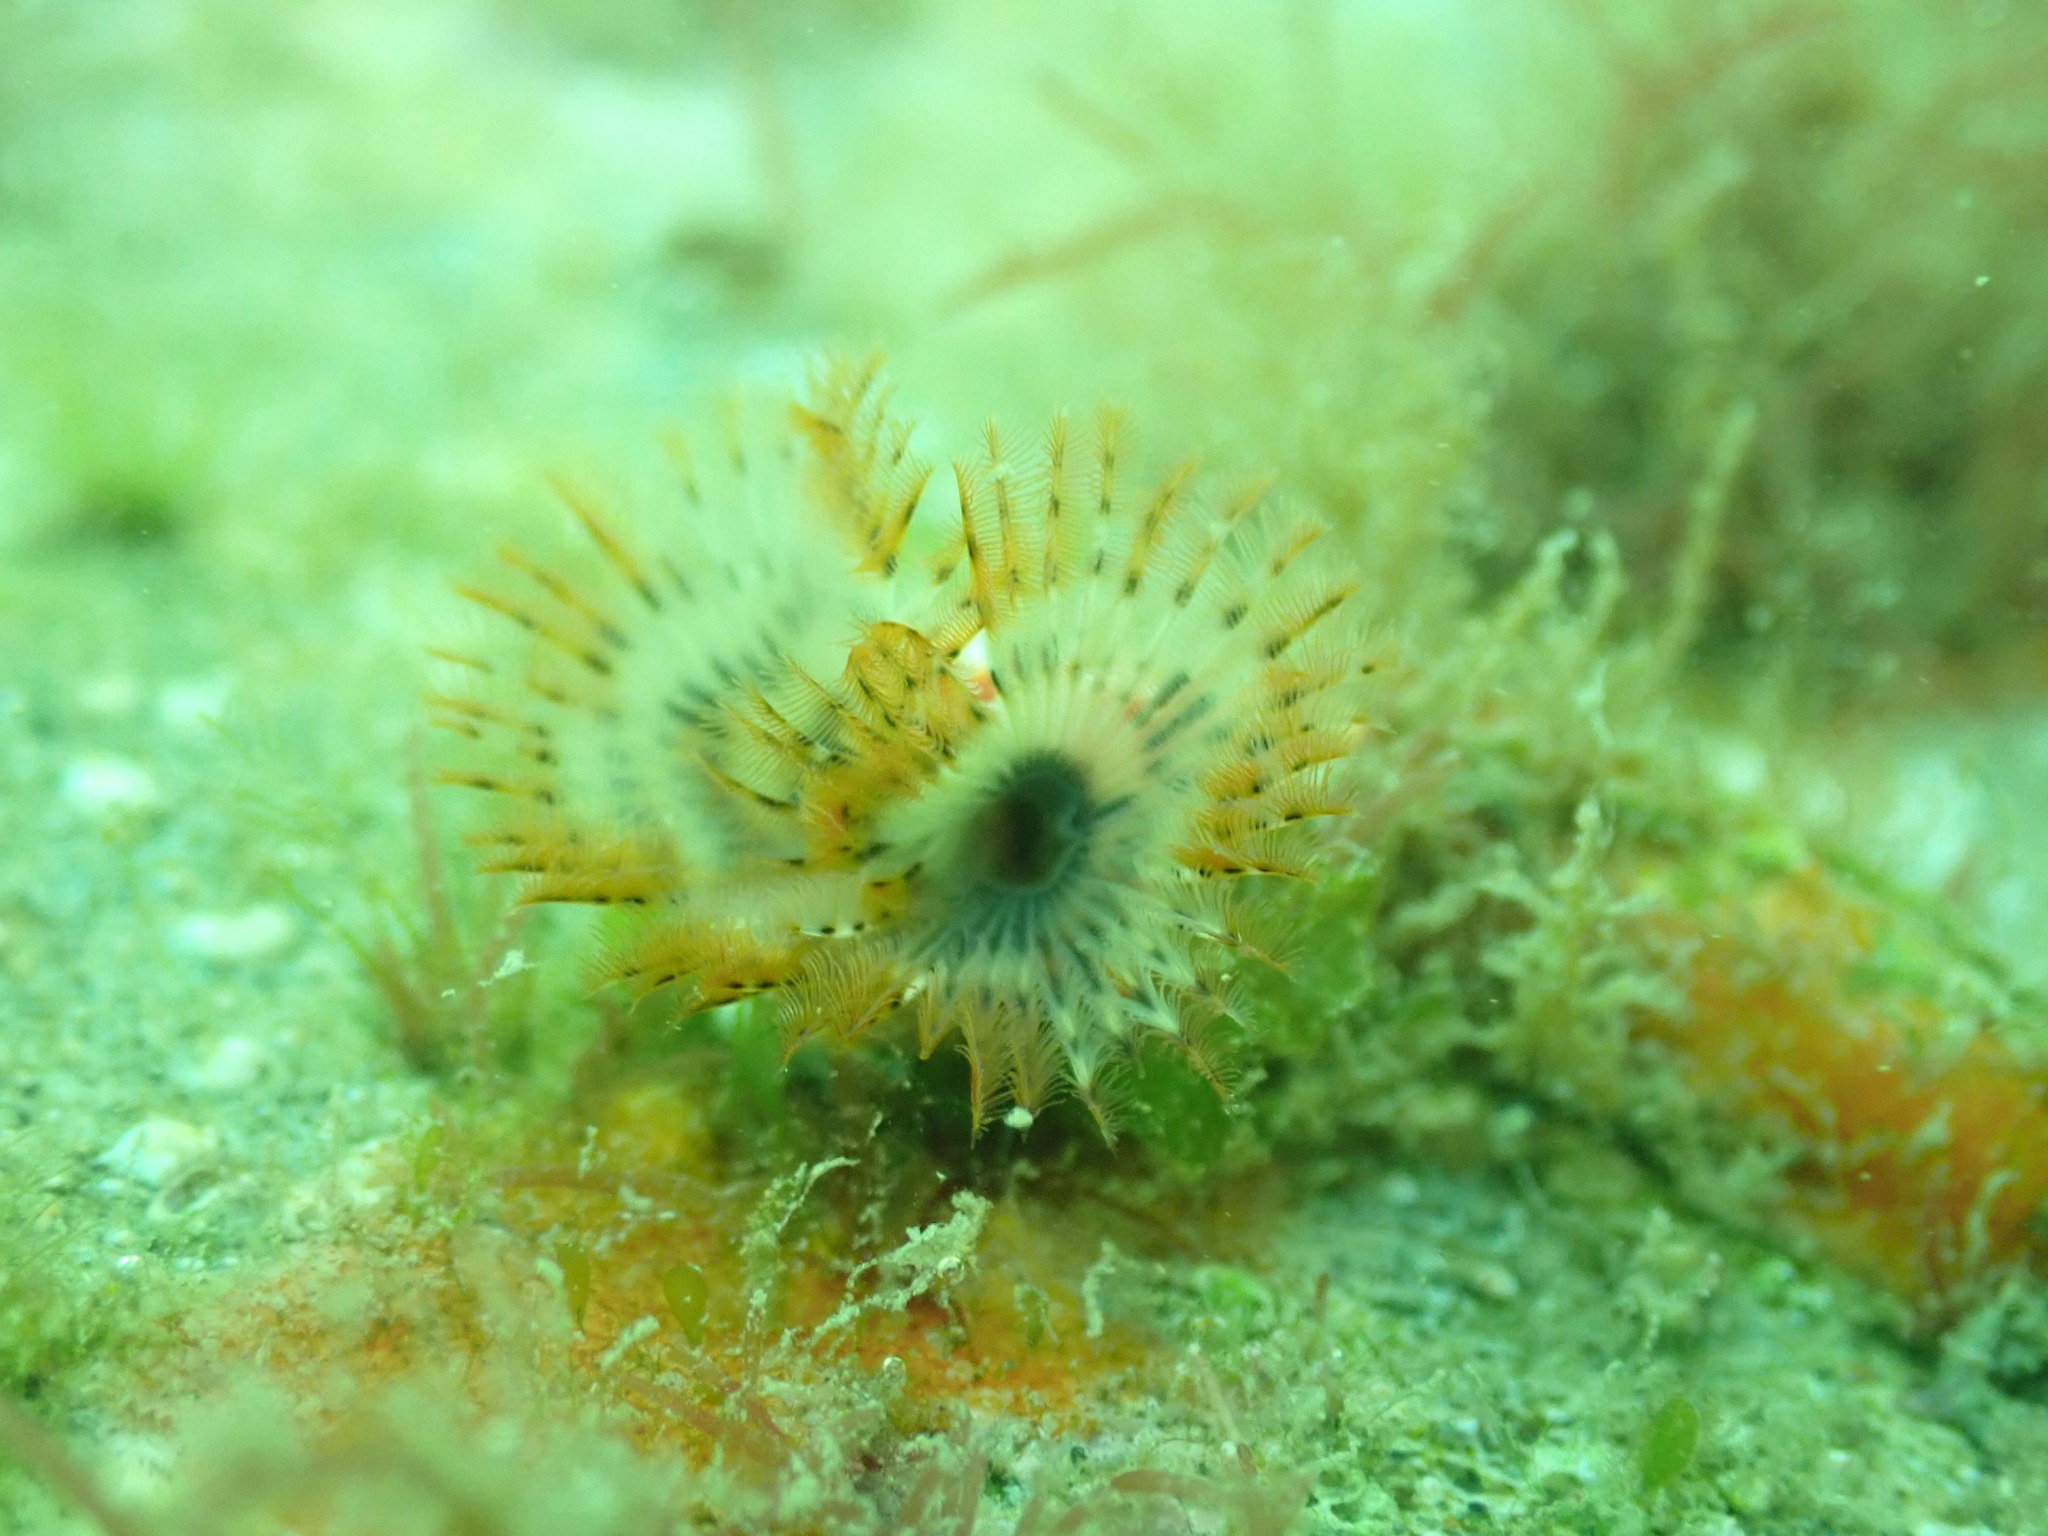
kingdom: Animalia
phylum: Annelida
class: Polychaeta
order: Sabellida
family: Serpulidae
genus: Galeolaria
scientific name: Galeolaria hystrix
